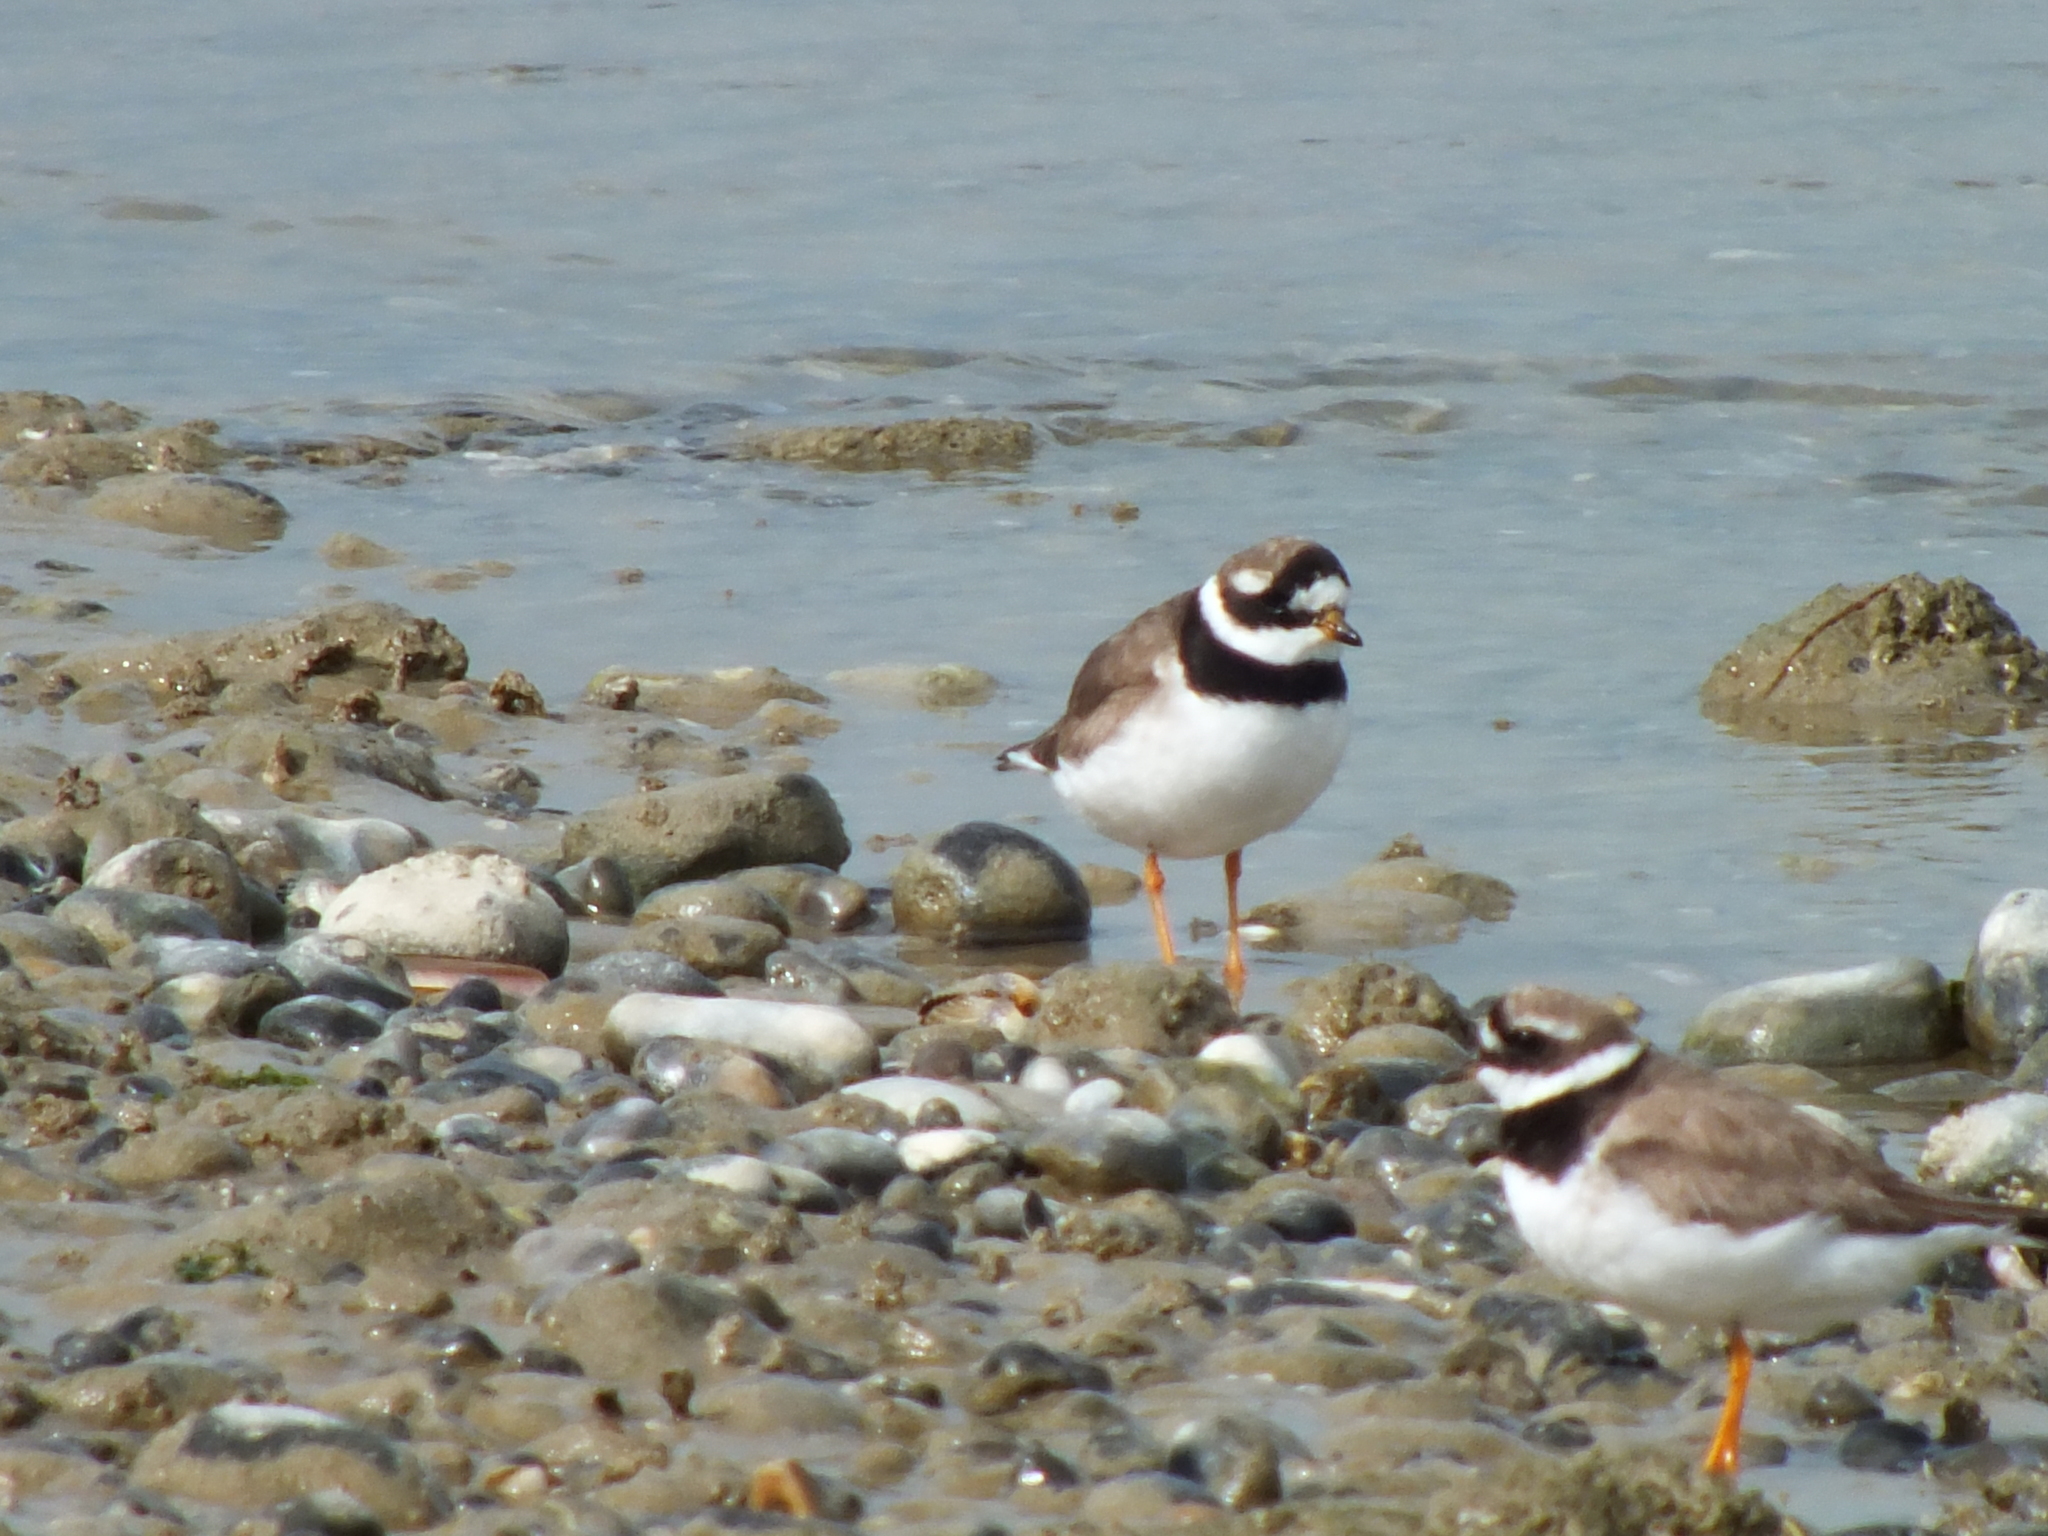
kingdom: Animalia
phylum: Chordata
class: Aves
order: Charadriiformes
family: Charadriidae
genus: Charadrius
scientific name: Charadrius hiaticula
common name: Common ringed plover
